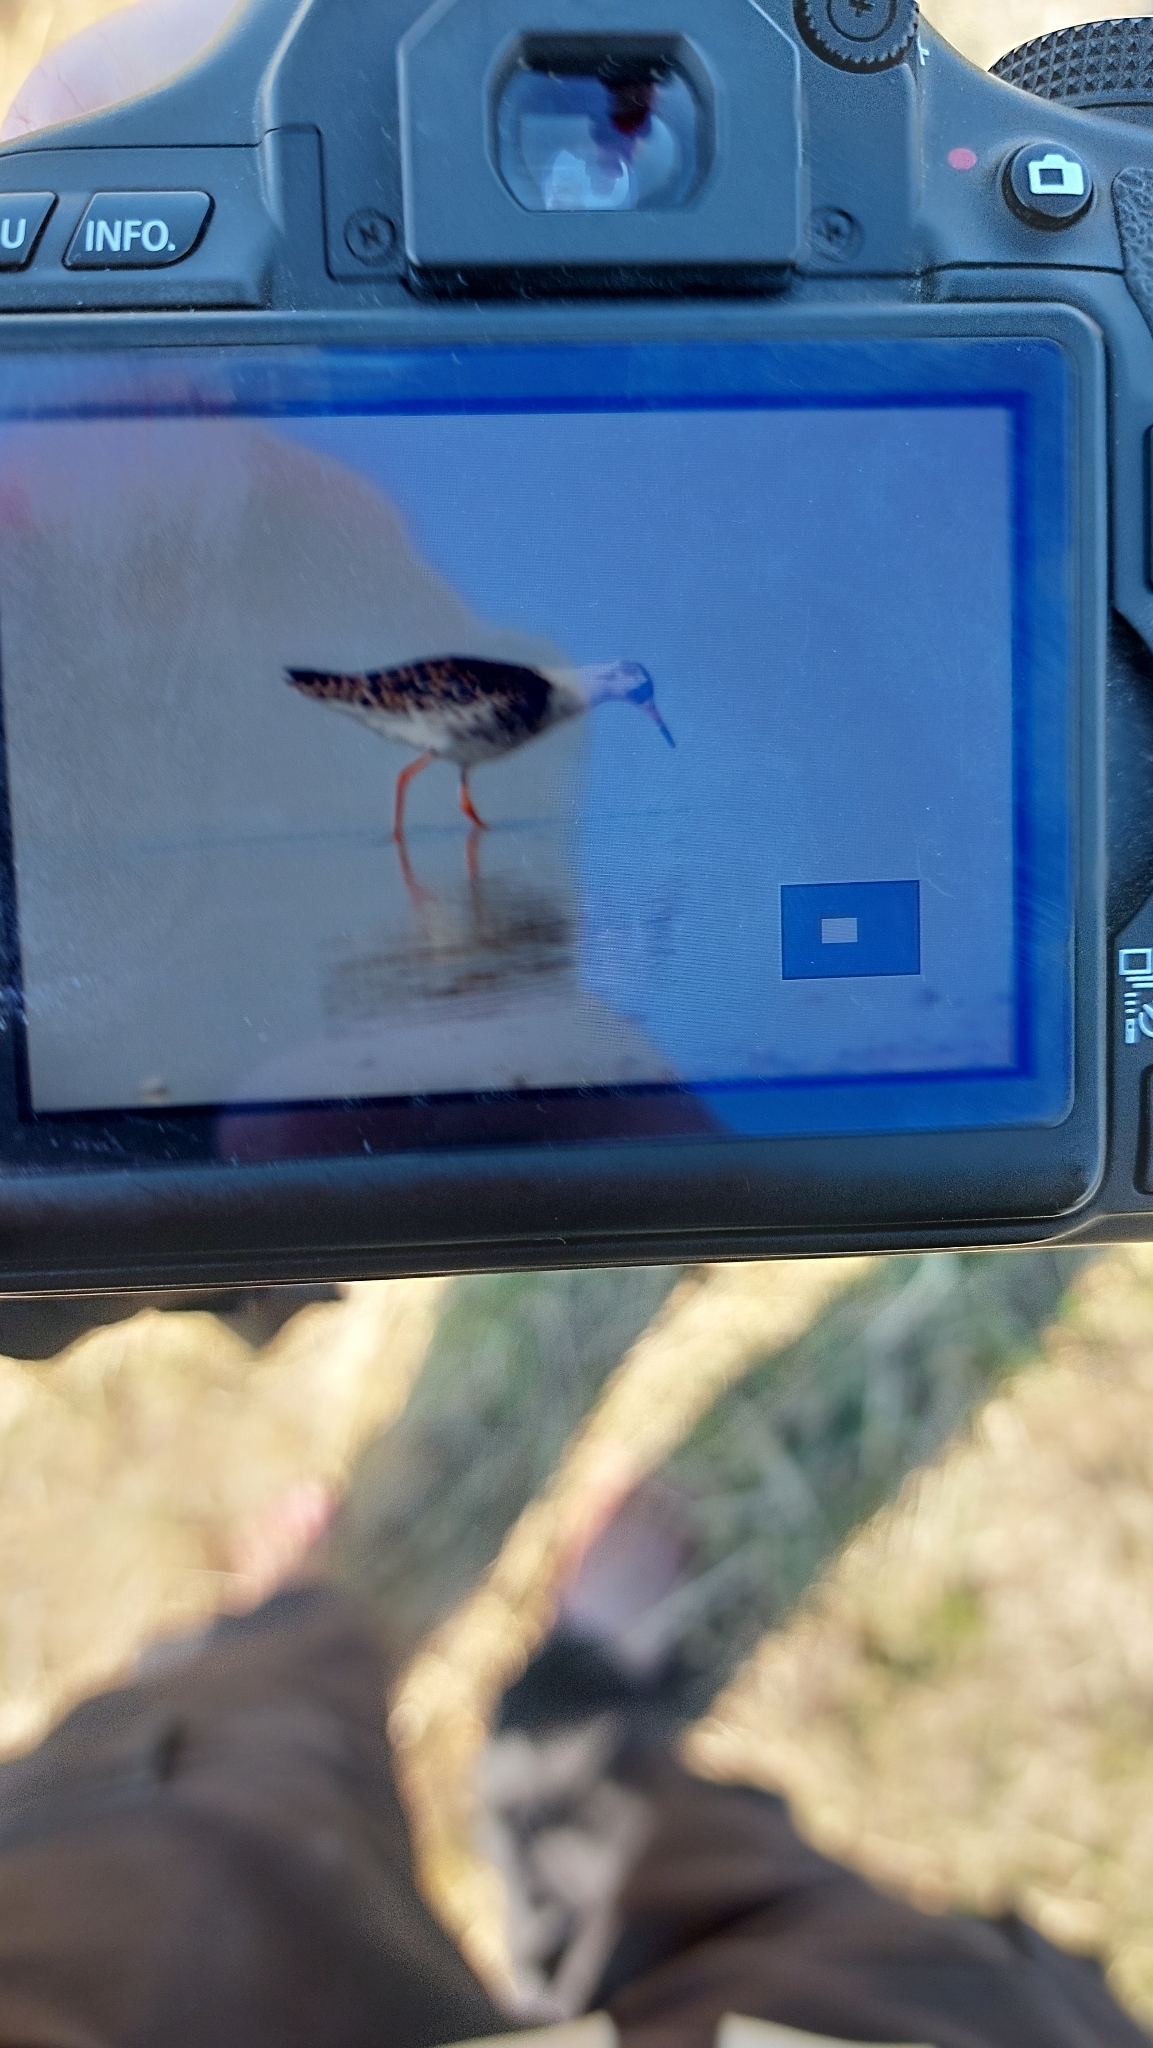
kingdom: Animalia
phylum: Chordata
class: Aves
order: Charadriiformes
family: Scolopacidae
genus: Calidris
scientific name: Calidris pugnax
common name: Ruff
